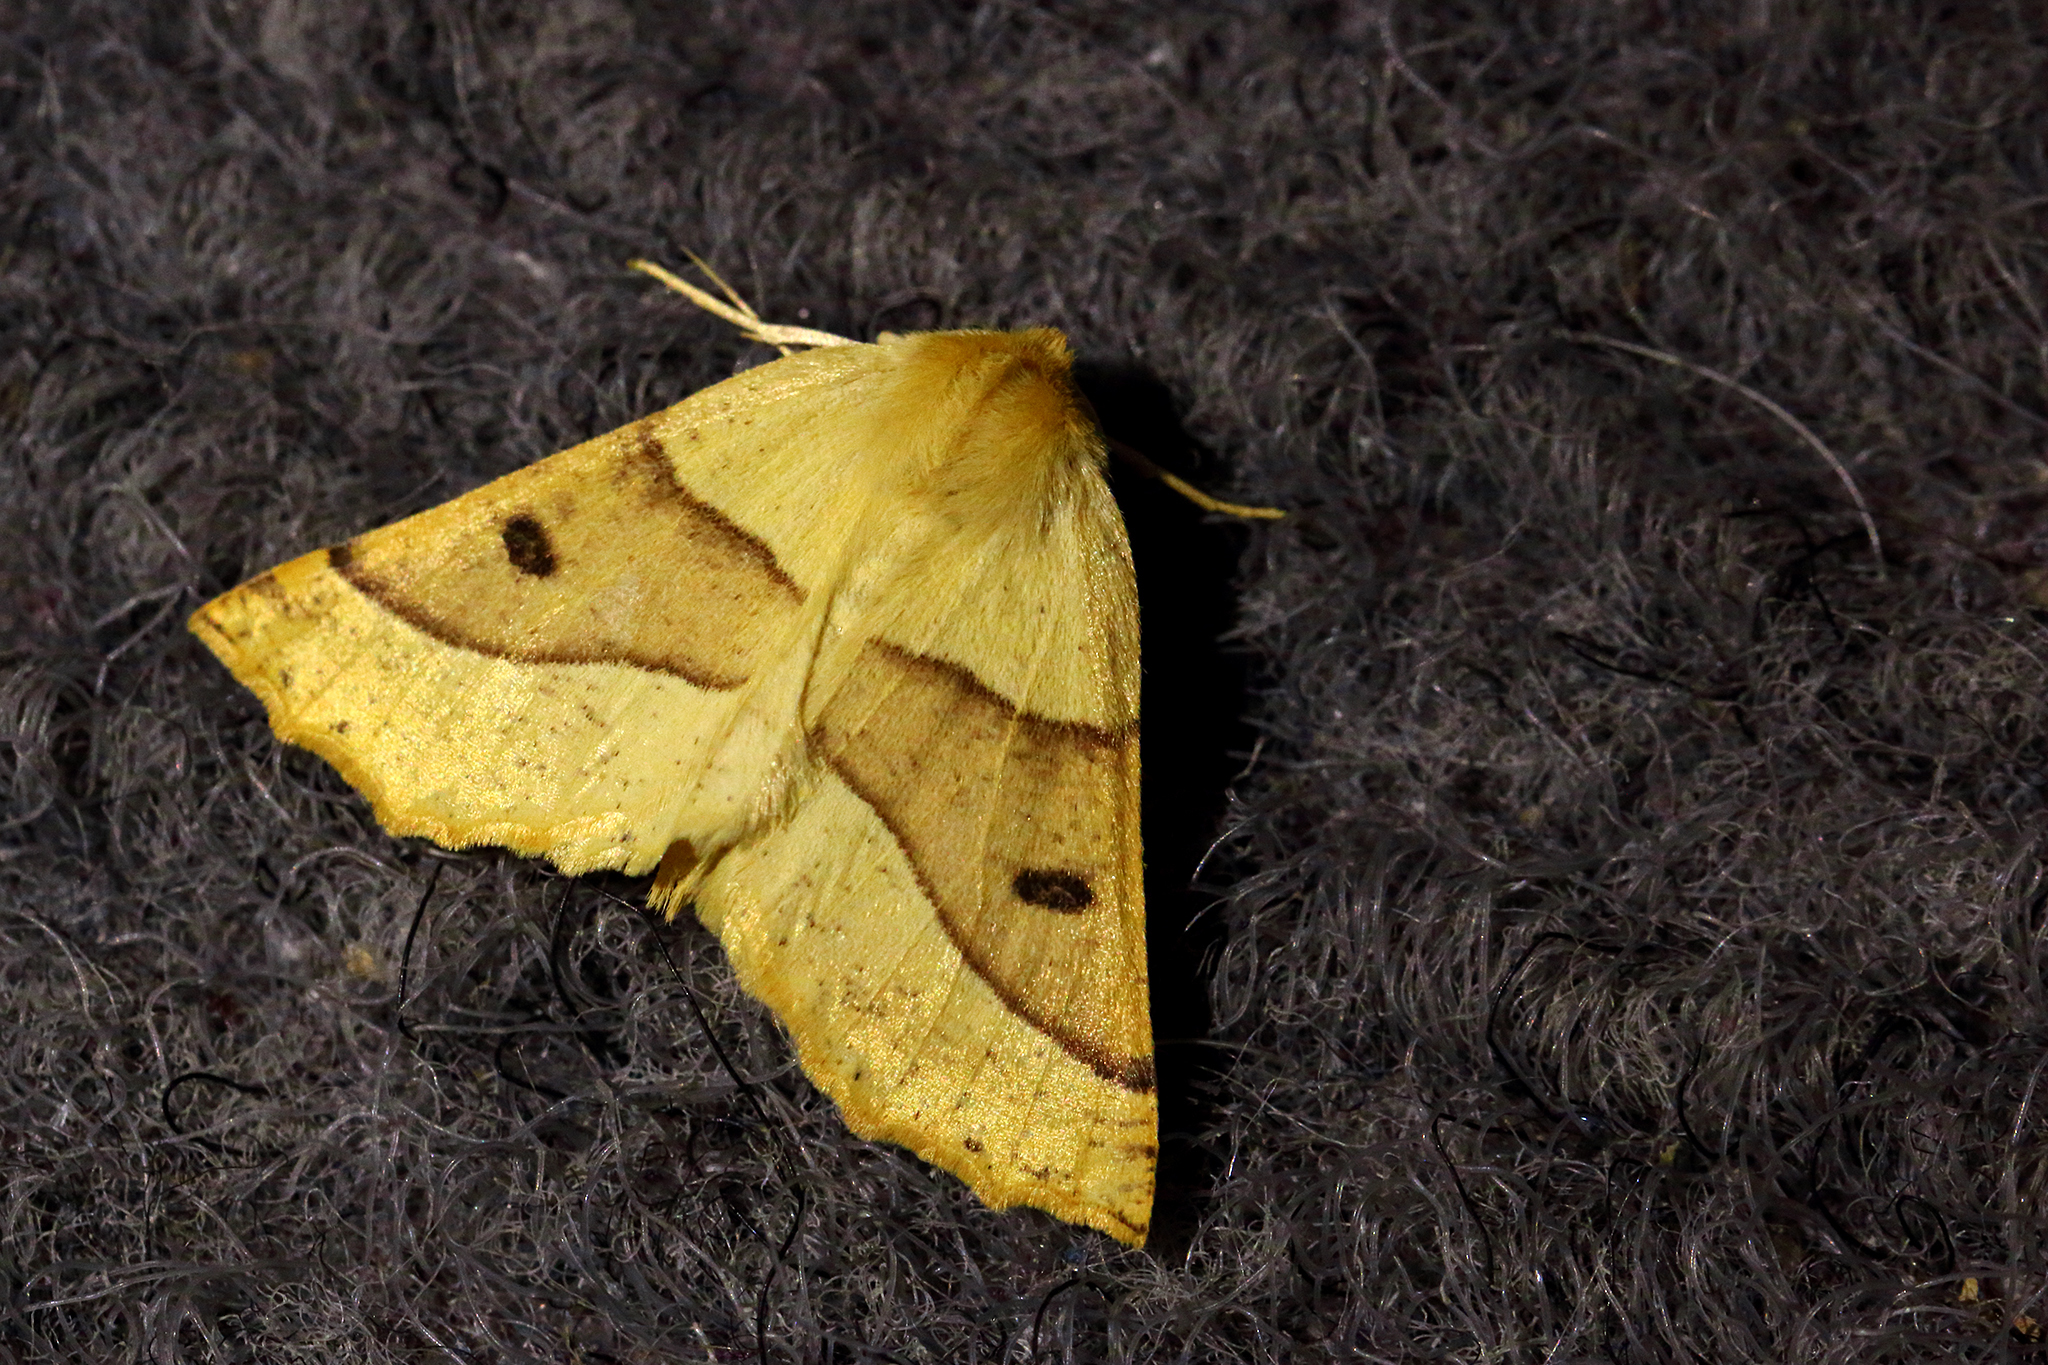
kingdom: Animalia
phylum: Arthropoda
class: Insecta
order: Lepidoptera
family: Geometridae
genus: Crocallis
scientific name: Crocallis elinguaria
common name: Scalloped oak
